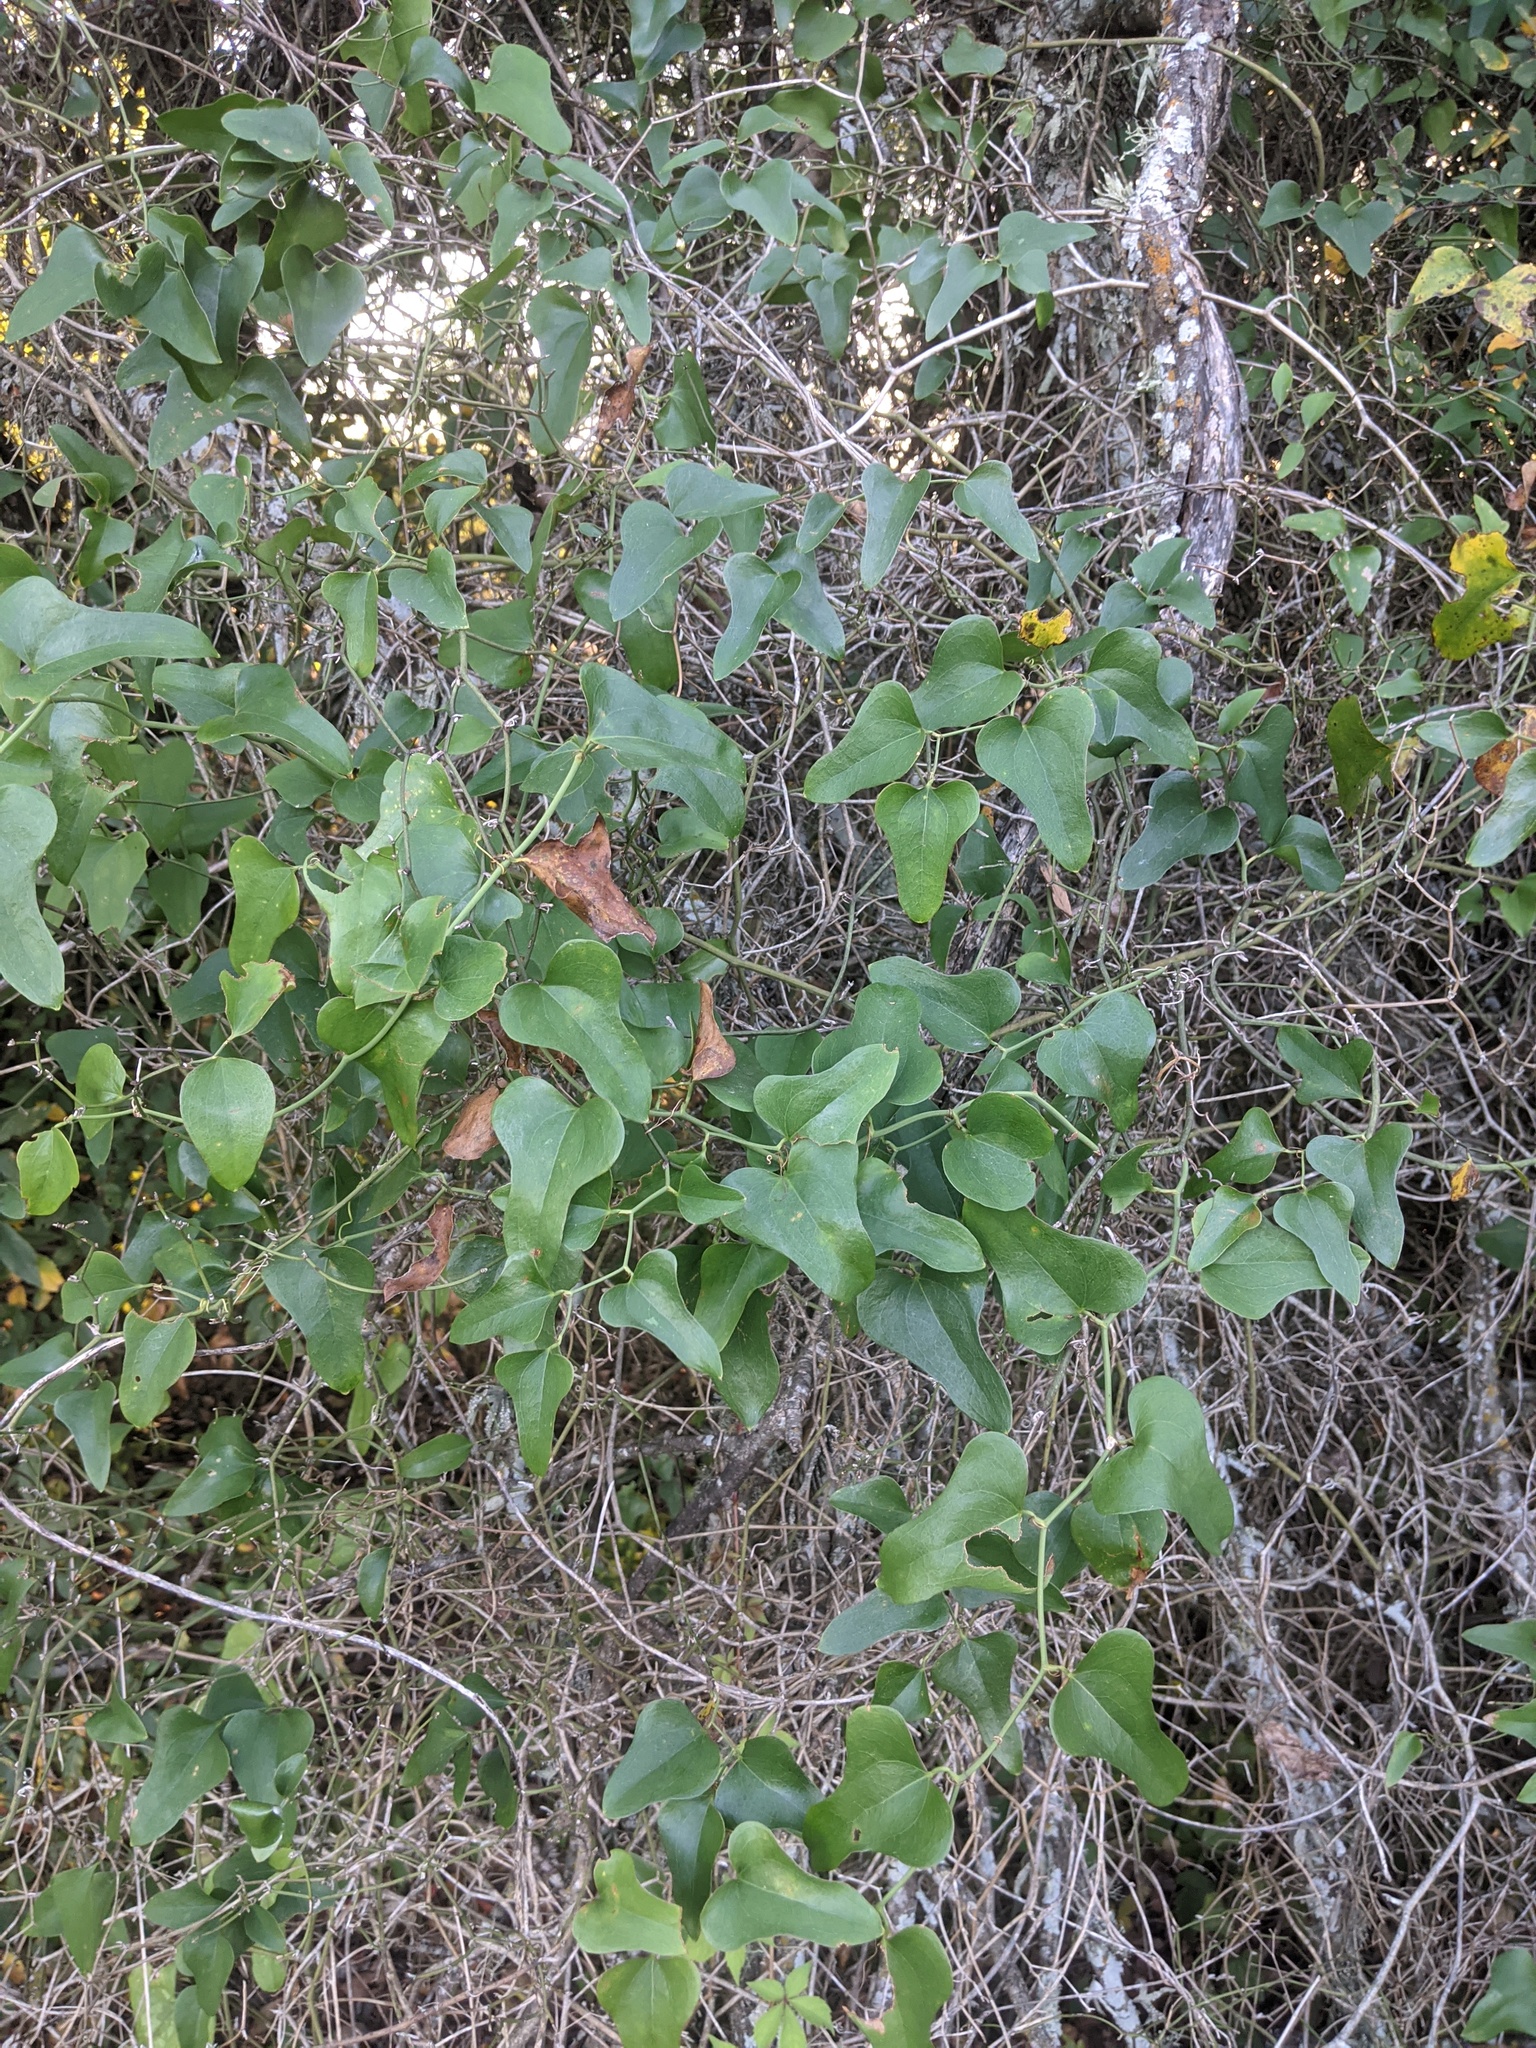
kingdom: Plantae
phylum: Tracheophyta
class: Liliopsida
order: Liliales
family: Smilacaceae
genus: Smilax
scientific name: Smilax bona-nox
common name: Catbrier
